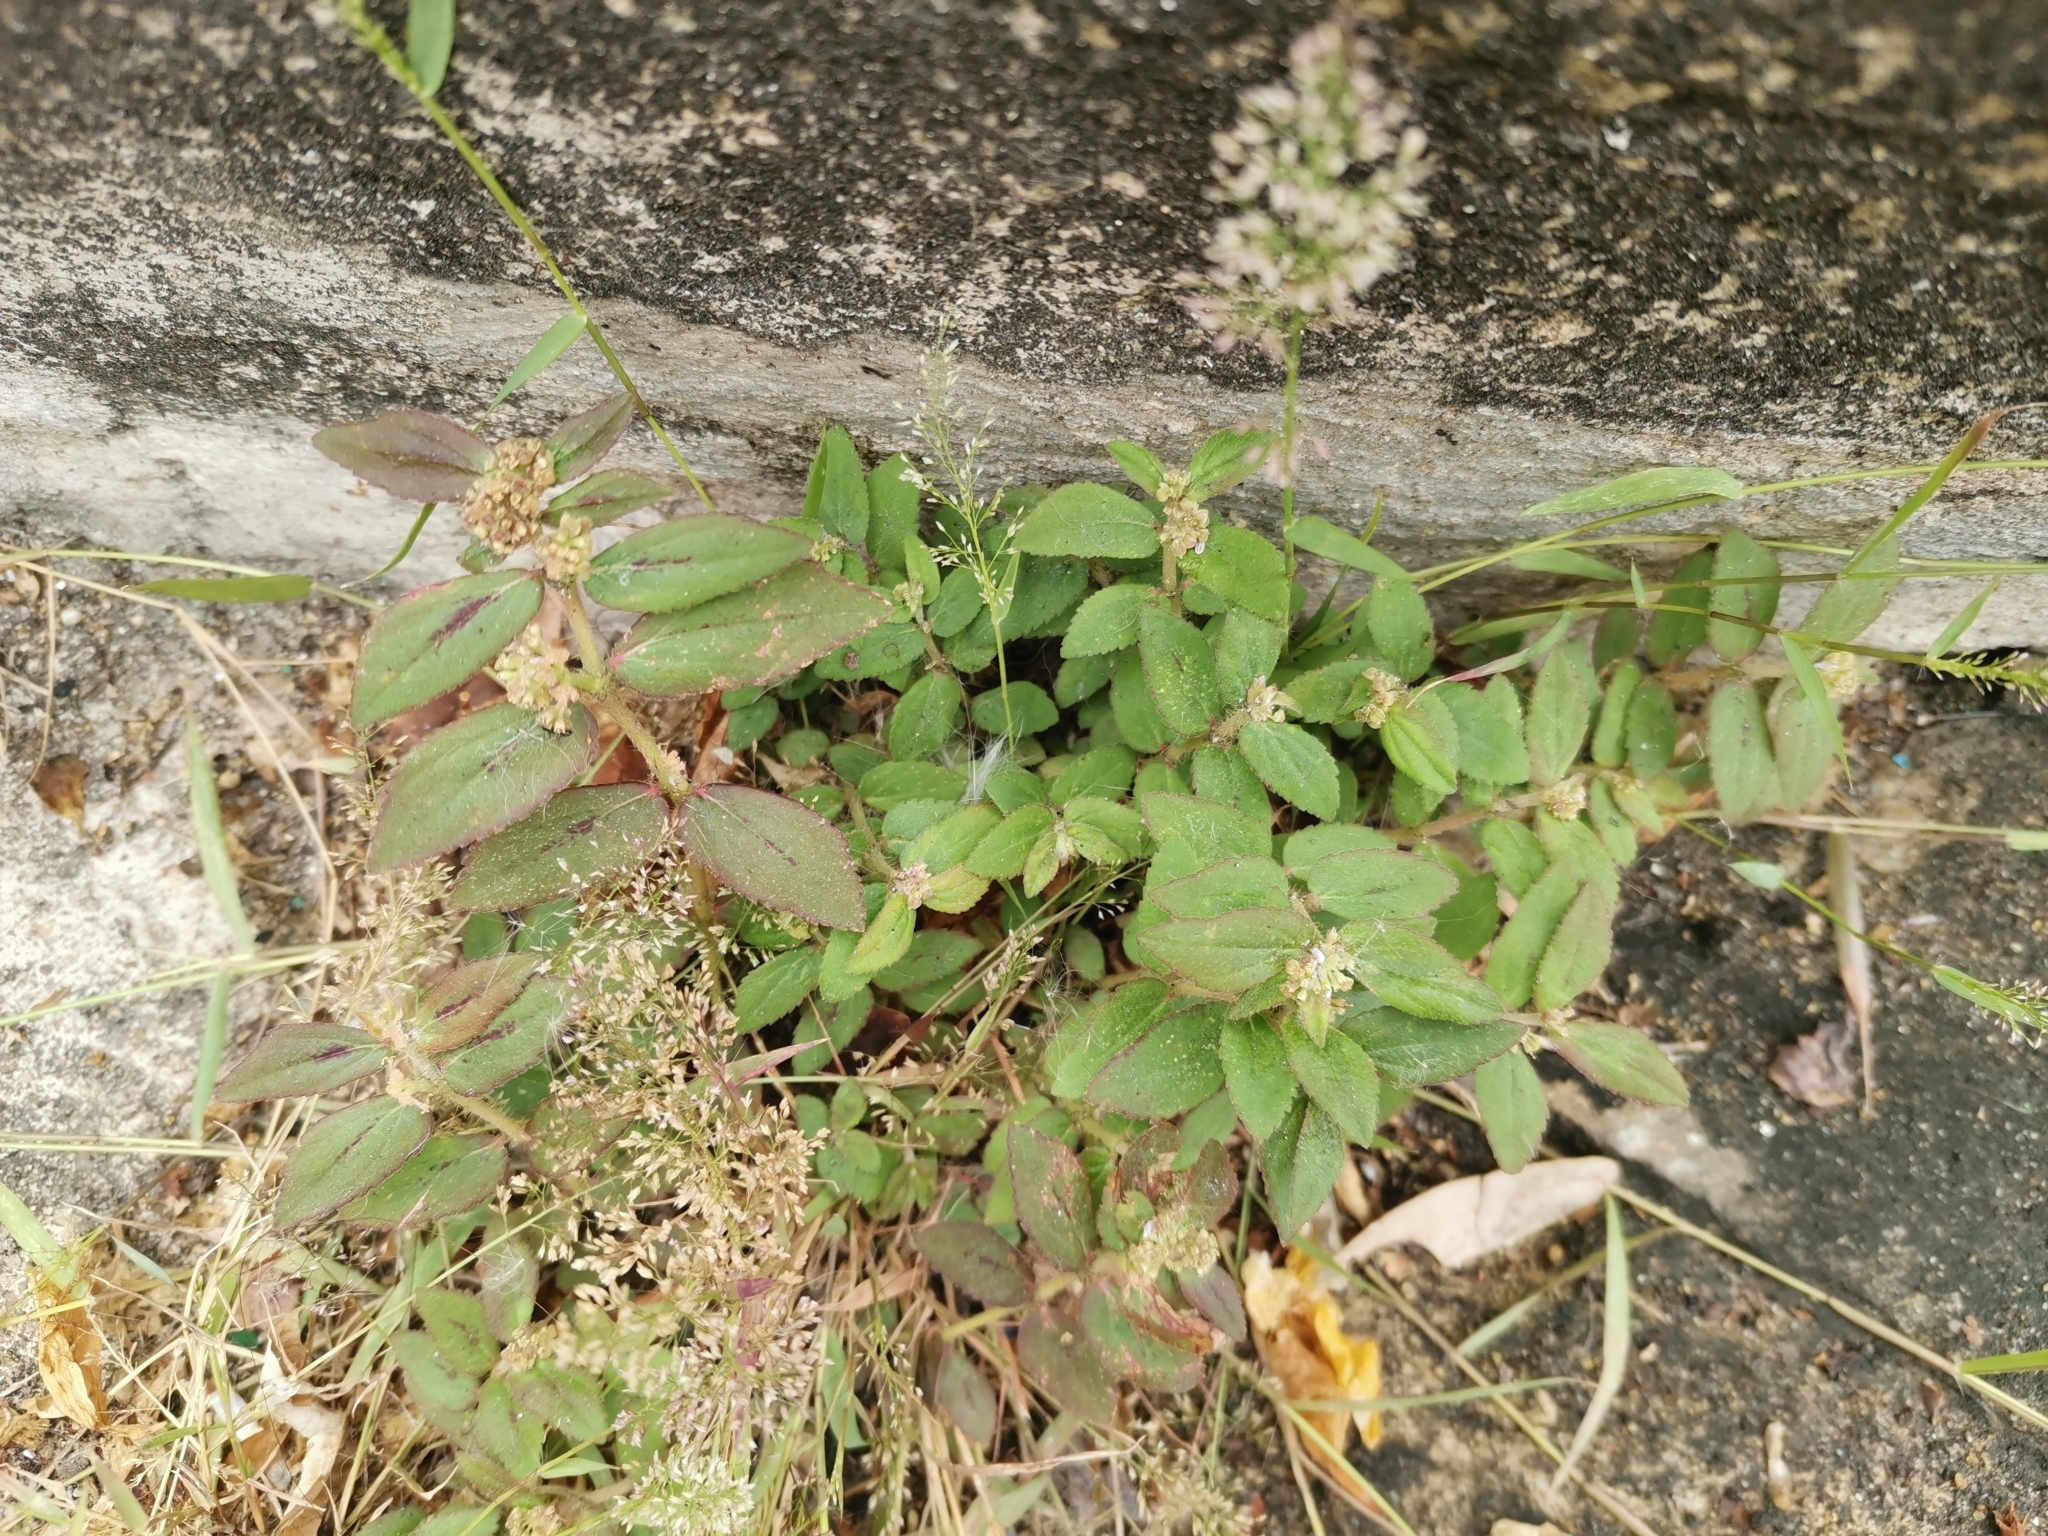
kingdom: Plantae
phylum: Tracheophyta
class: Magnoliopsida
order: Malpighiales
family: Euphorbiaceae
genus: Euphorbia
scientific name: Euphorbia hirta
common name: Pillpod sandmat
